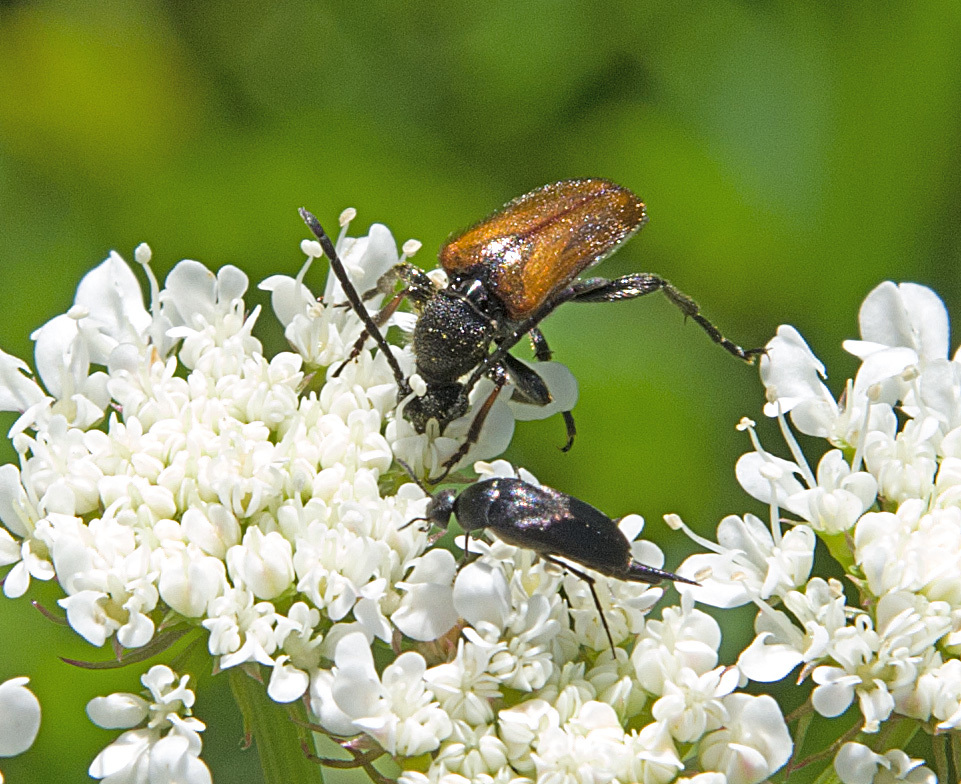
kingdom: Animalia
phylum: Arthropoda
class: Insecta
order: Coleoptera
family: Cerambycidae
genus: Pseudovadonia
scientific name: Pseudovadonia livida
